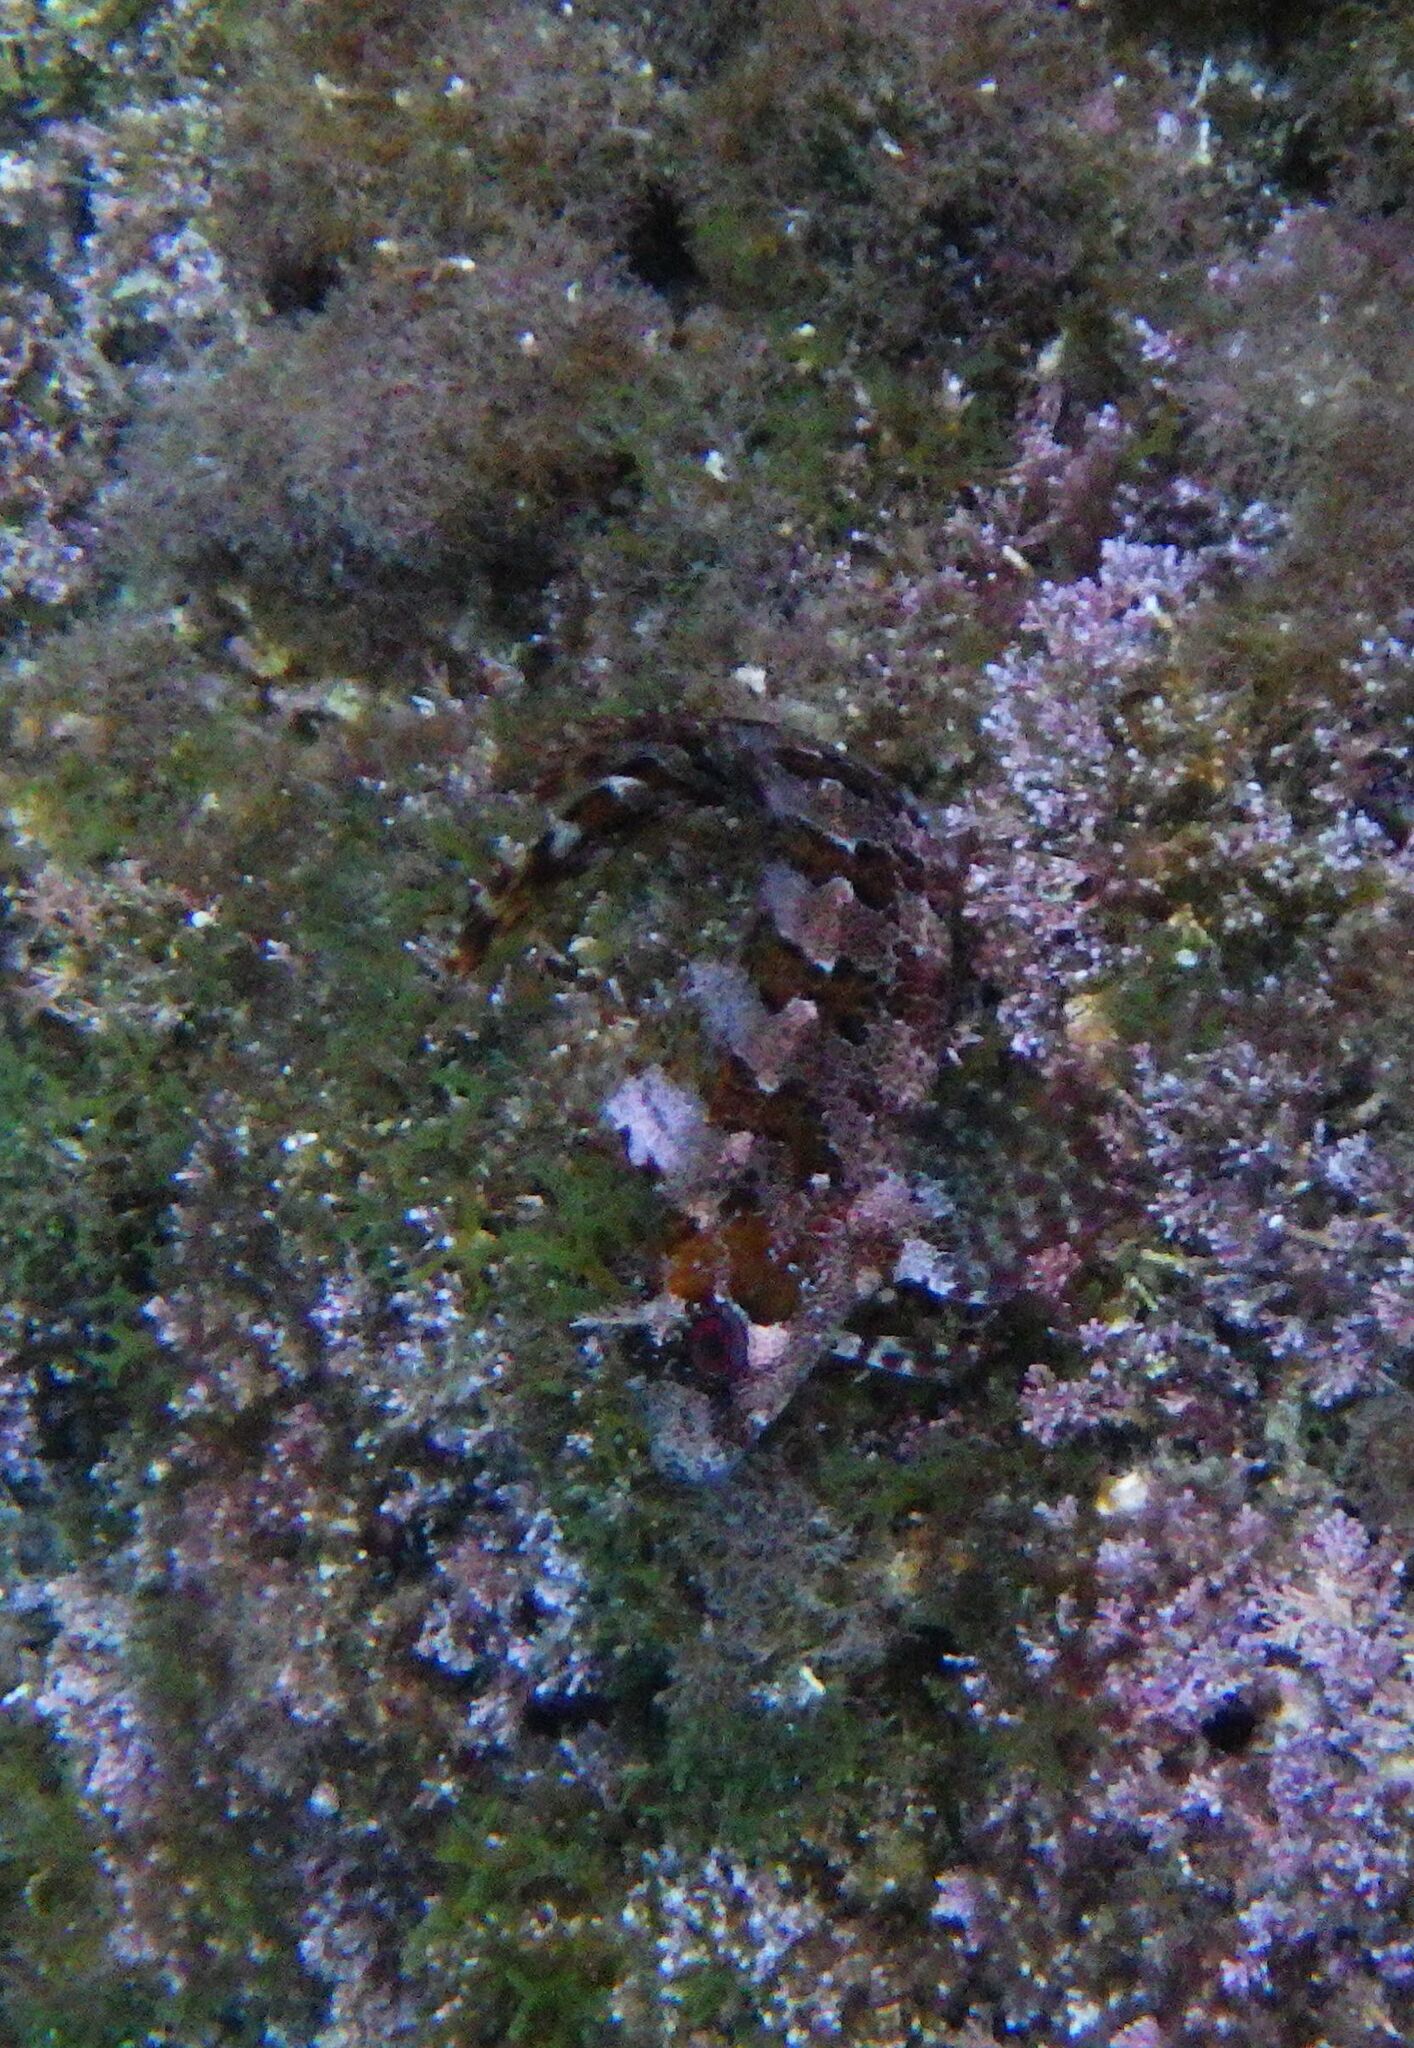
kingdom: Animalia
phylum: Chordata
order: Perciformes
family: Blenniidae
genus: Parablennius
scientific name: Parablennius gattorugine
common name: Tompot blenny
